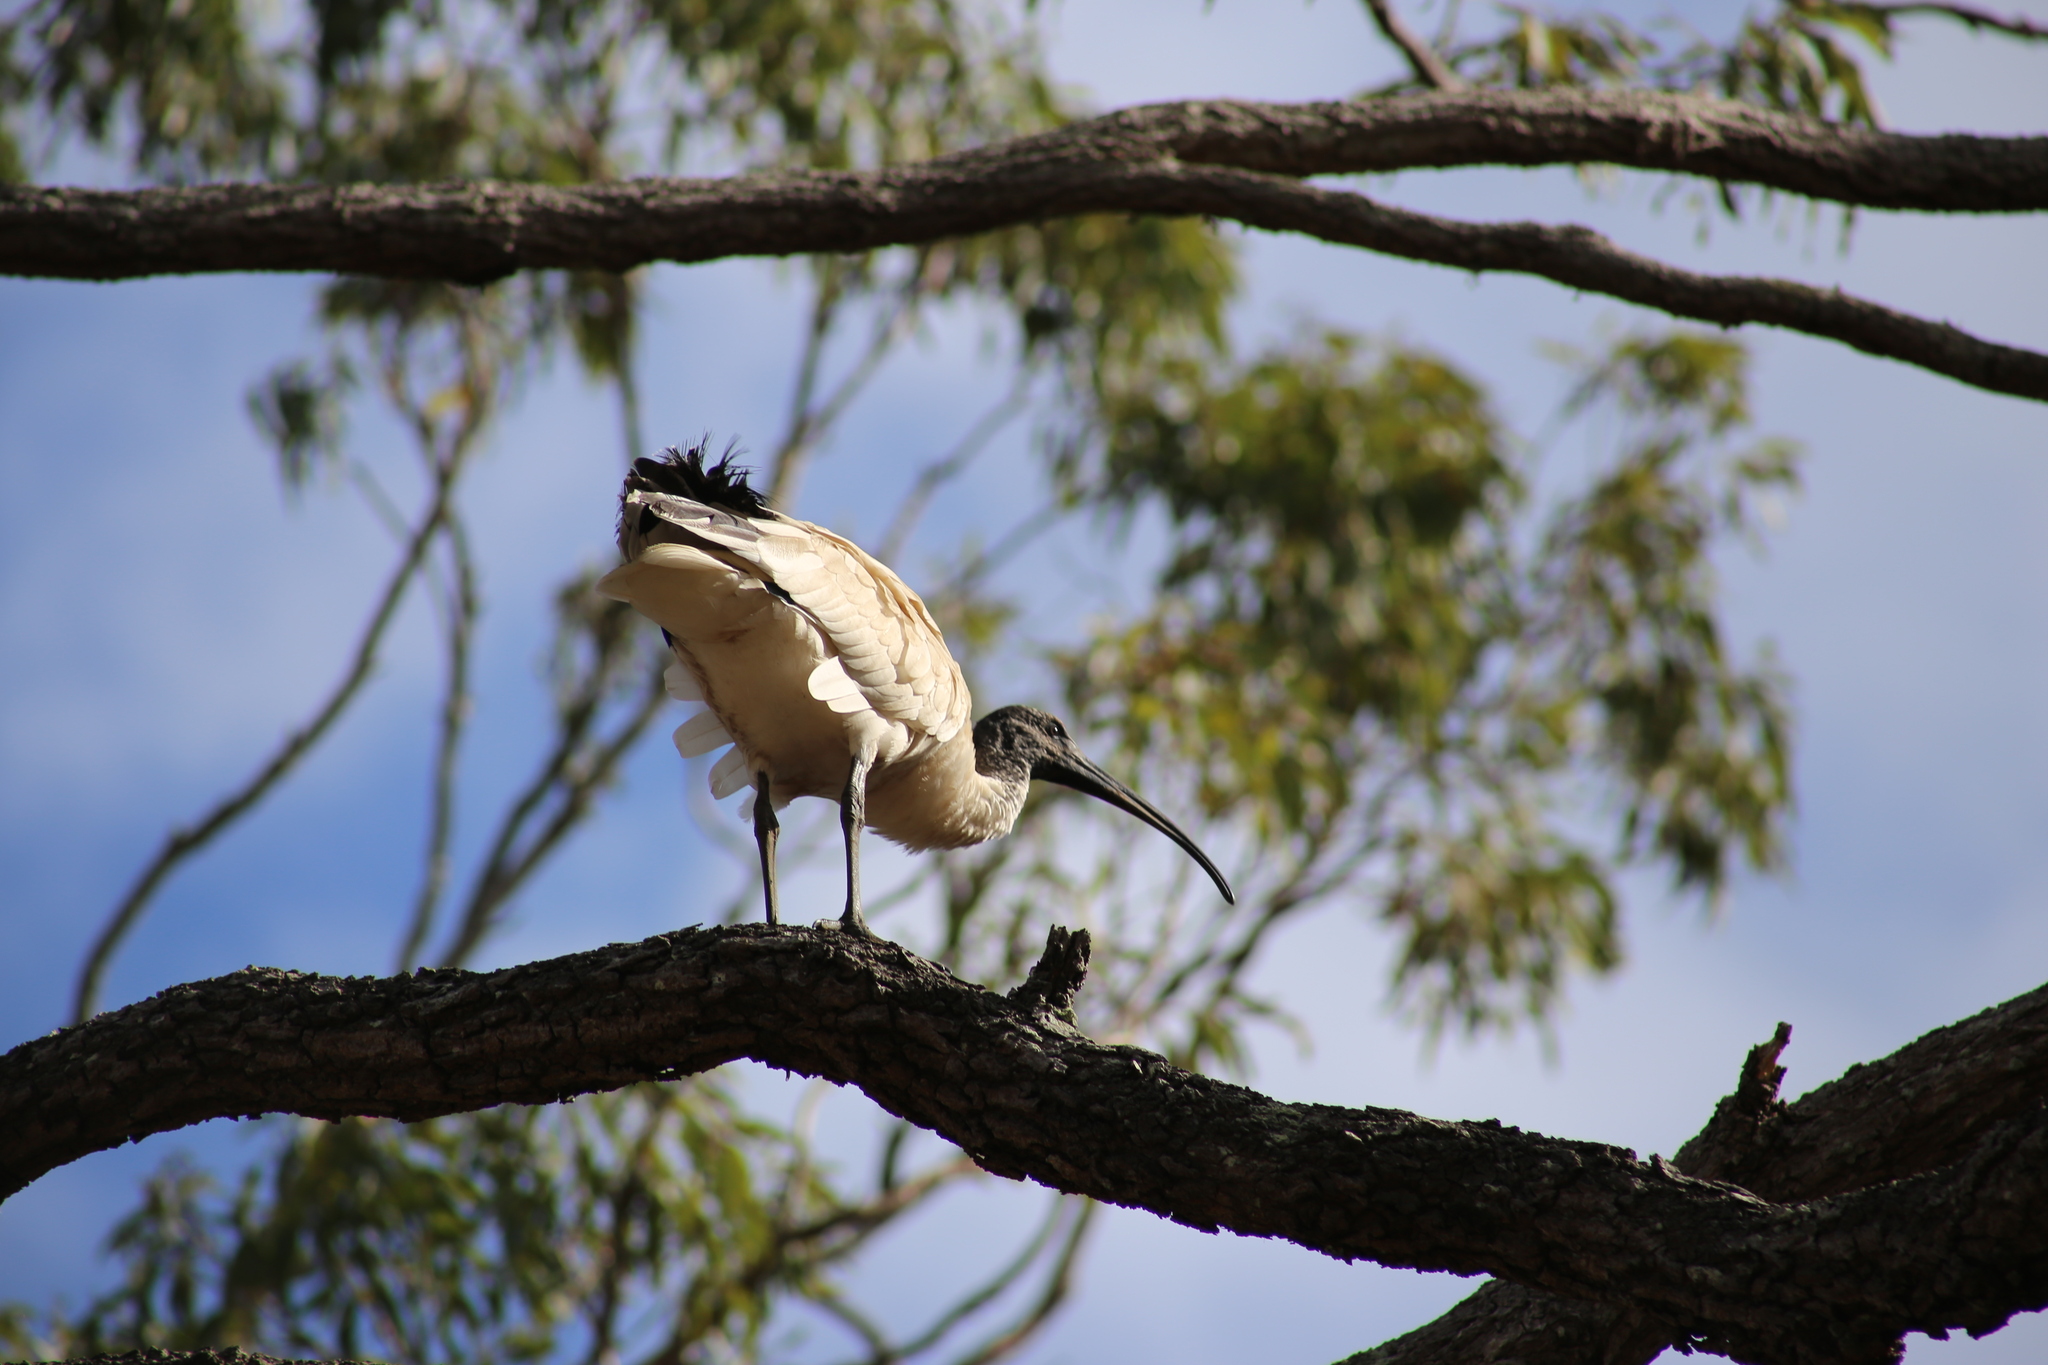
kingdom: Animalia
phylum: Chordata
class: Aves
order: Pelecaniformes
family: Threskiornithidae
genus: Threskiornis
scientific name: Threskiornis molucca
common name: Australian white ibis
